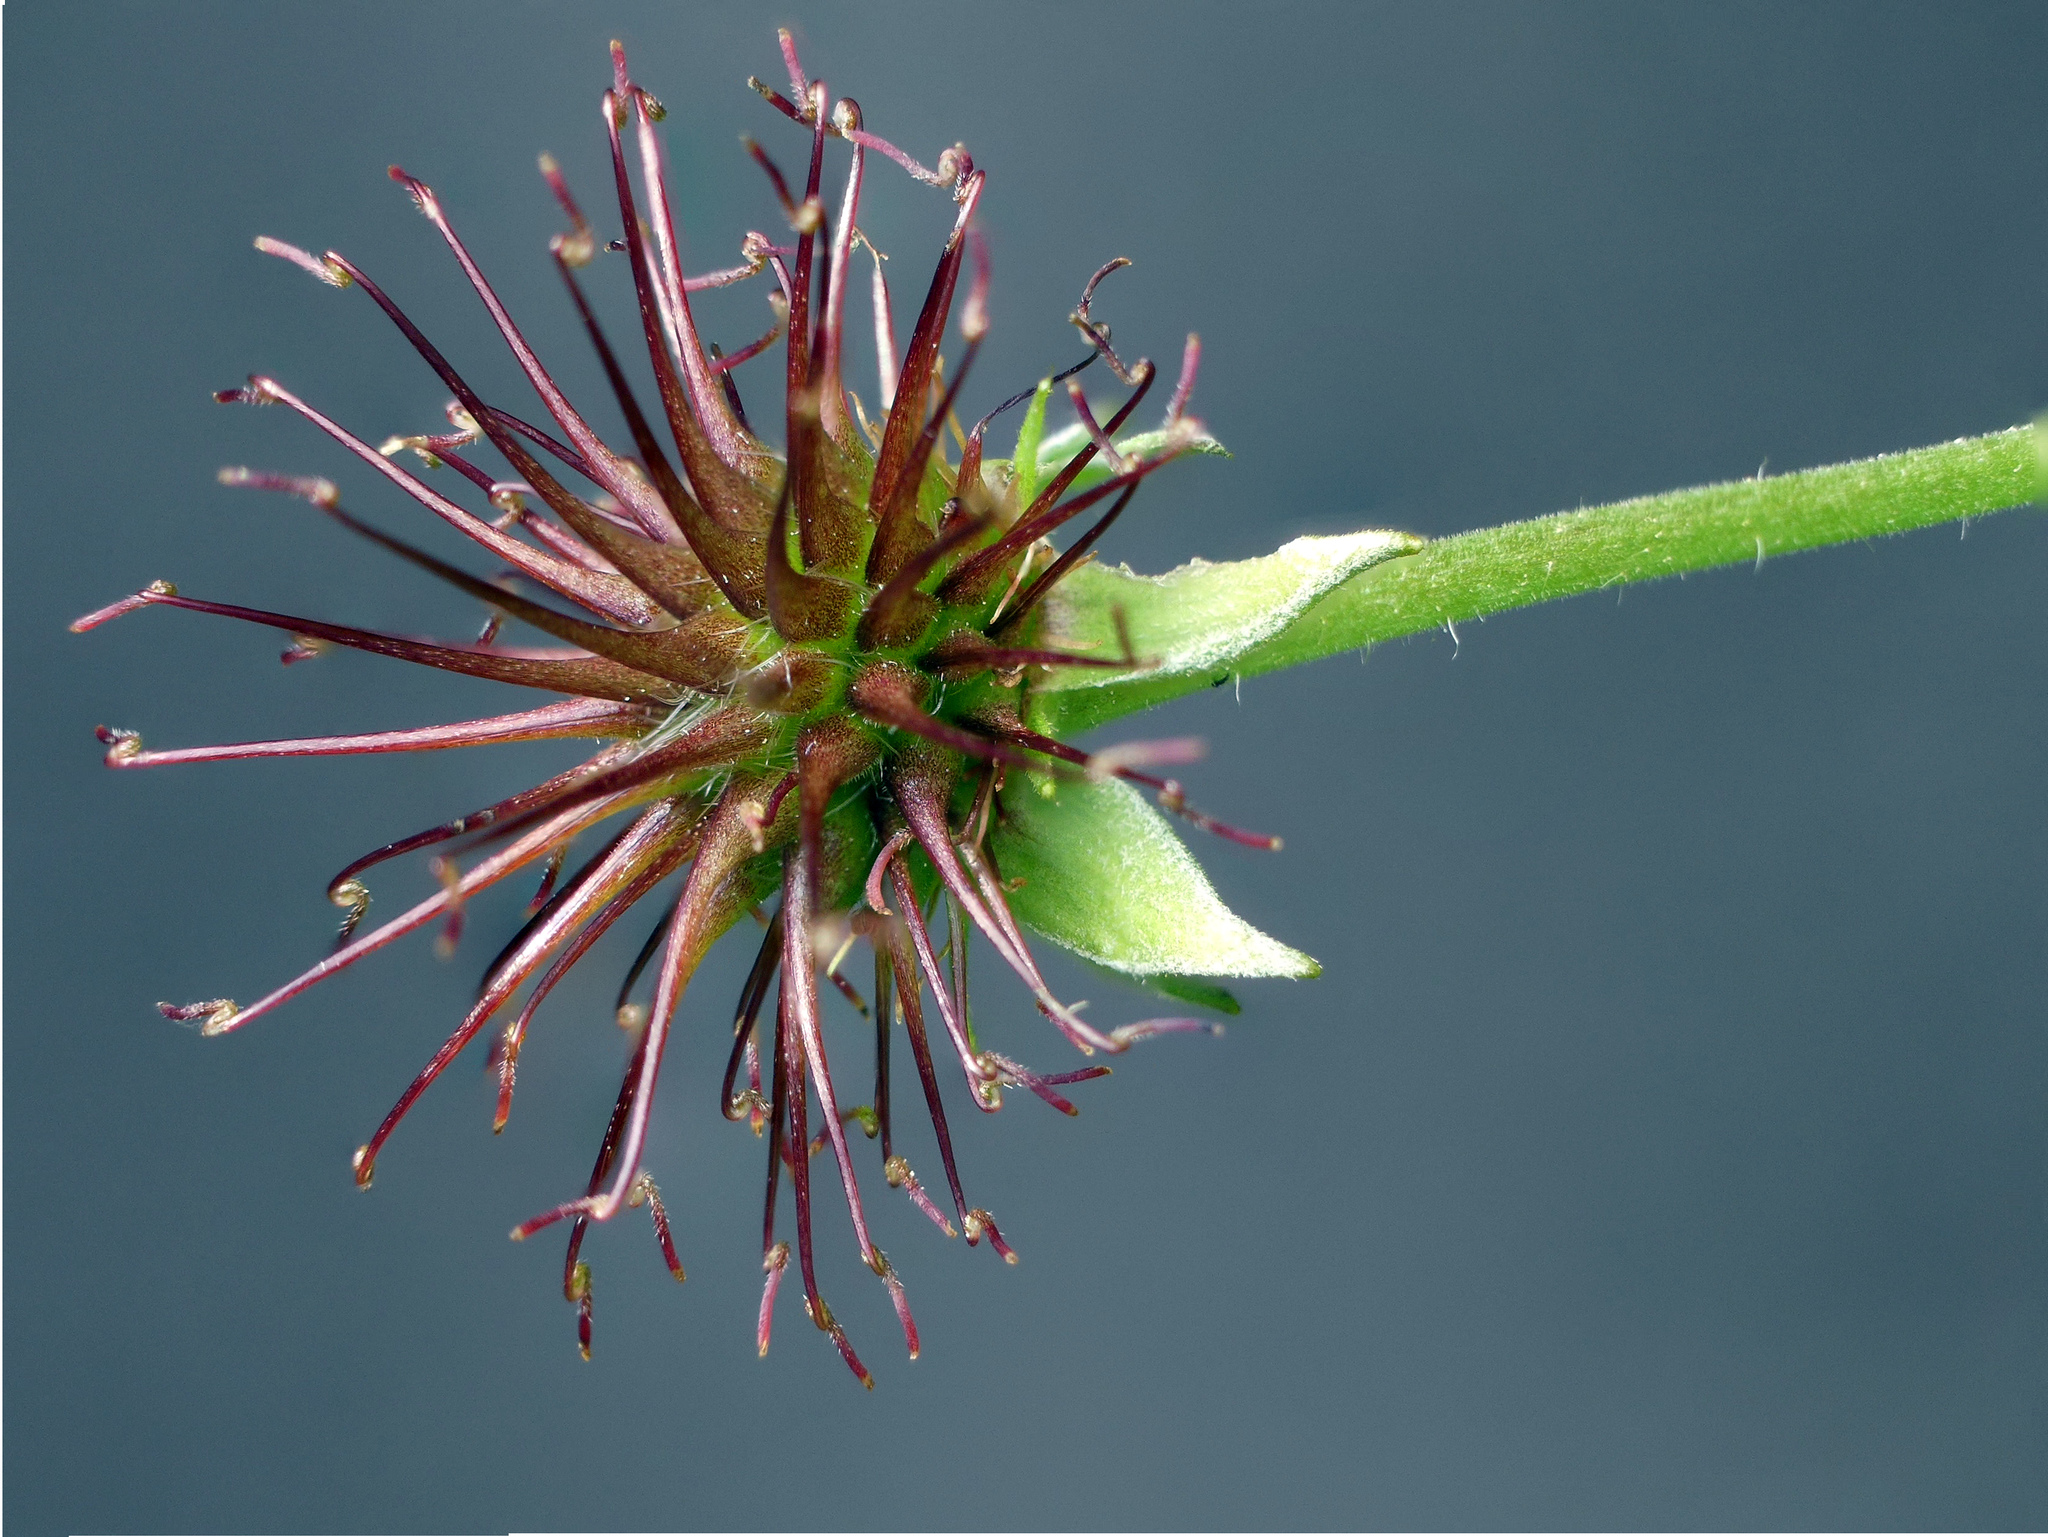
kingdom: Plantae
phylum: Tracheophyta
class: Magnoliopsida
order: Rosales
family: Rosaceae
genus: Geum
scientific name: Geum urbanum
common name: Wood avens
